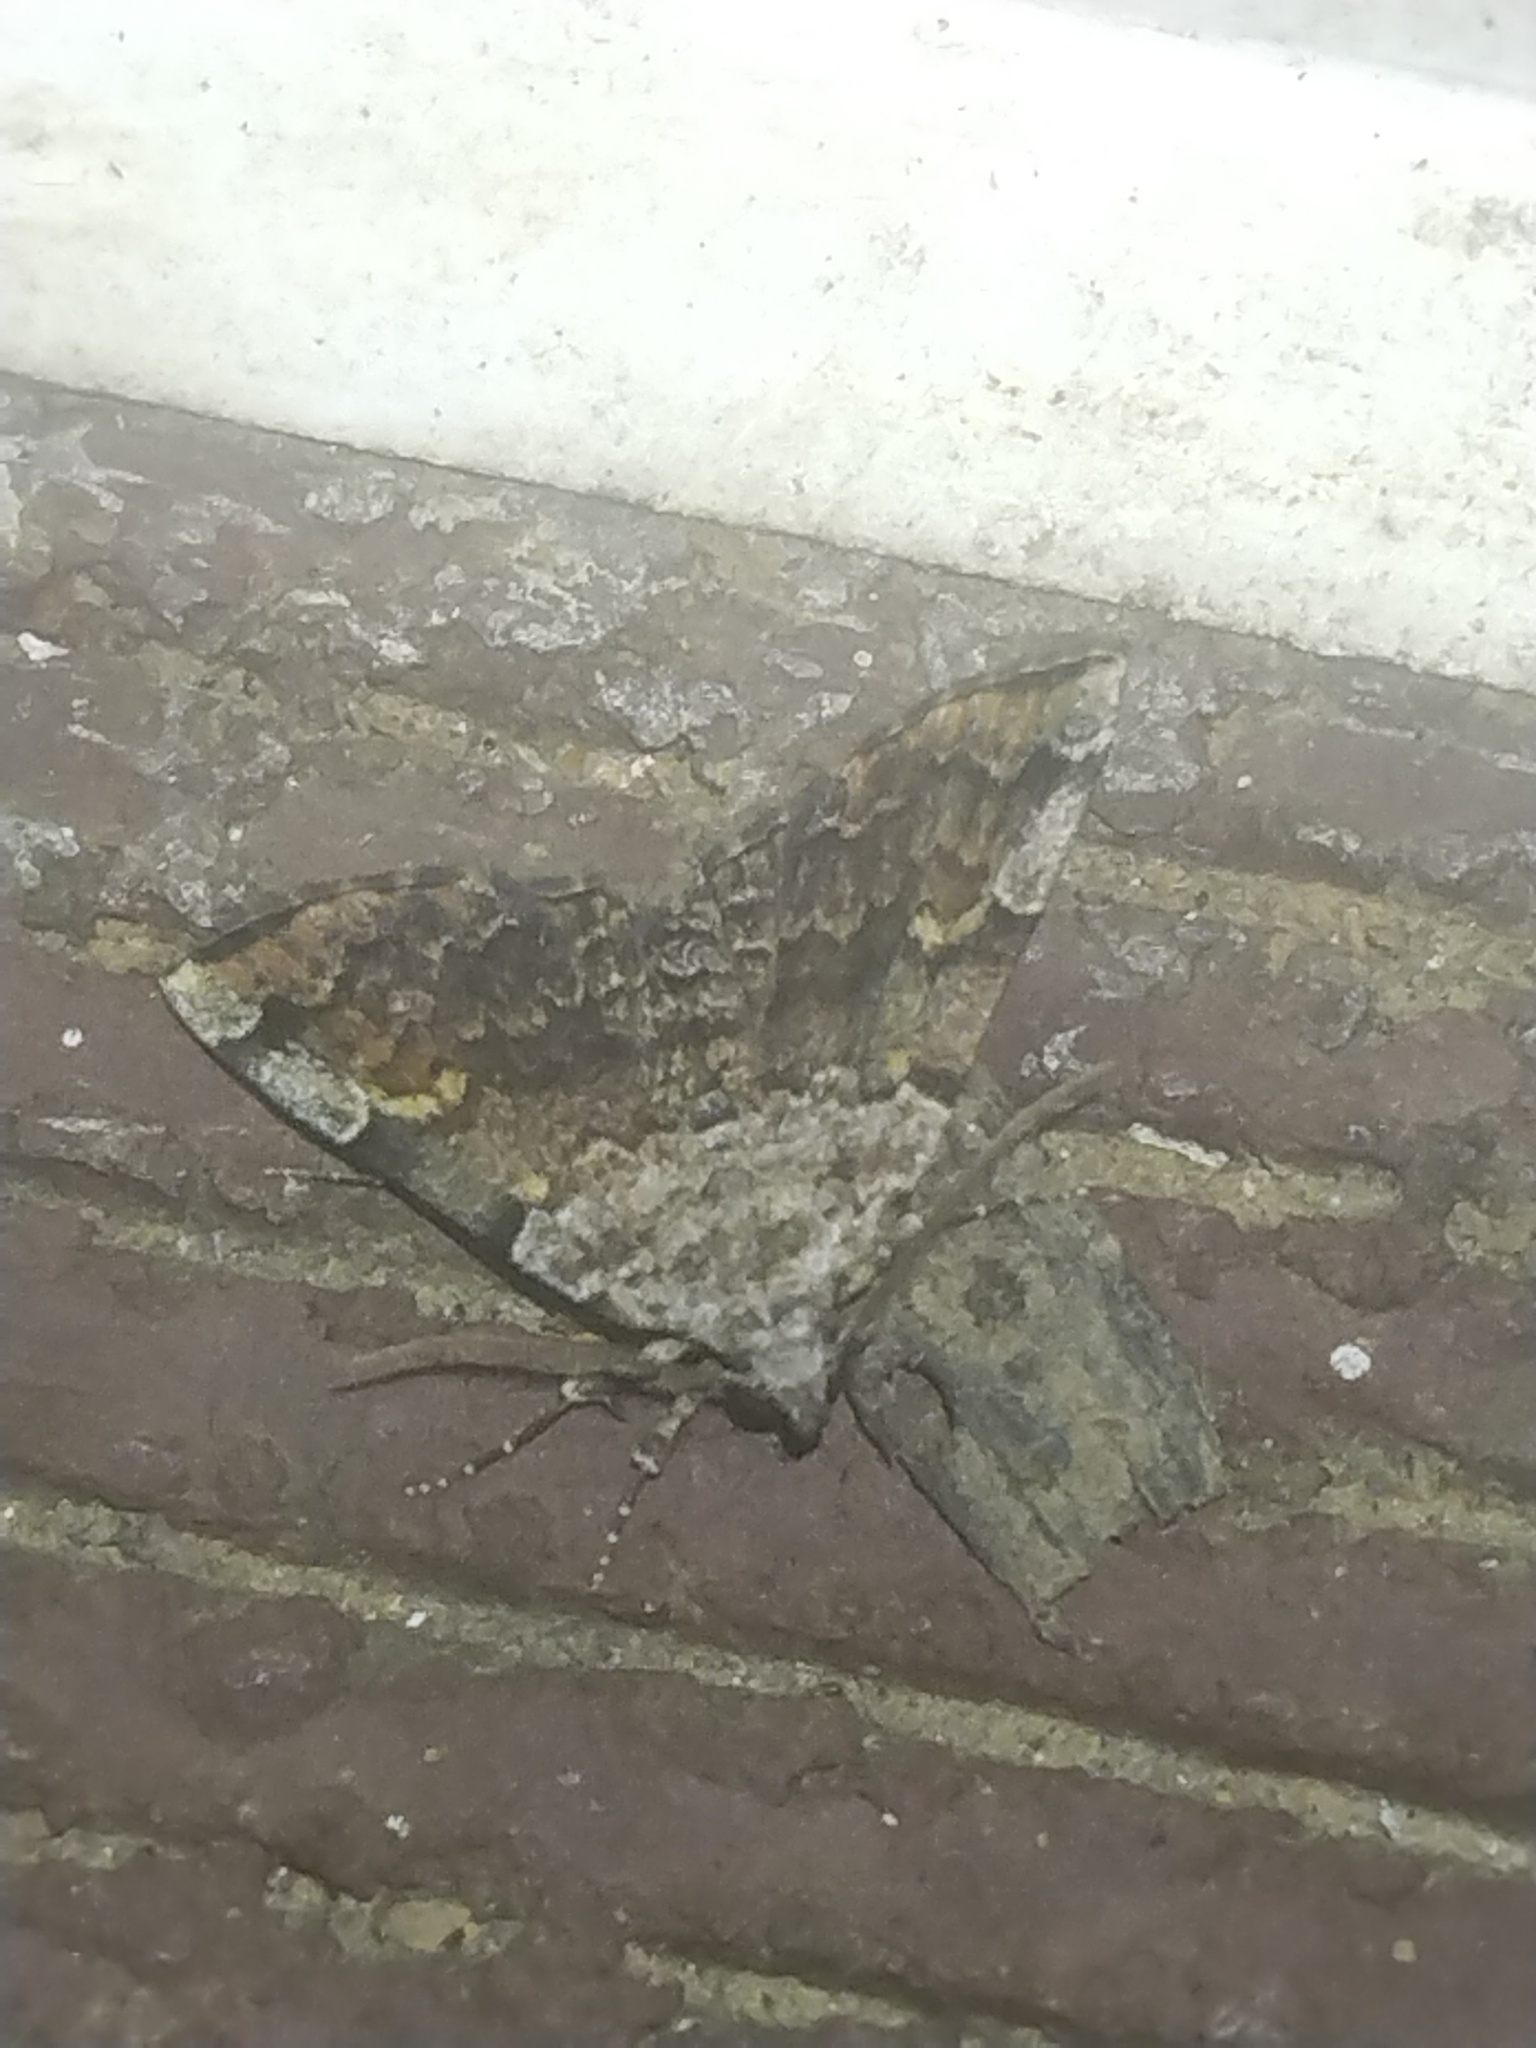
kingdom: Animalia
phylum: Arthropoda
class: Insecta
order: Lepidoptera
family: Erebidae
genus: Idia
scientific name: Idia americalis
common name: American idia moth
